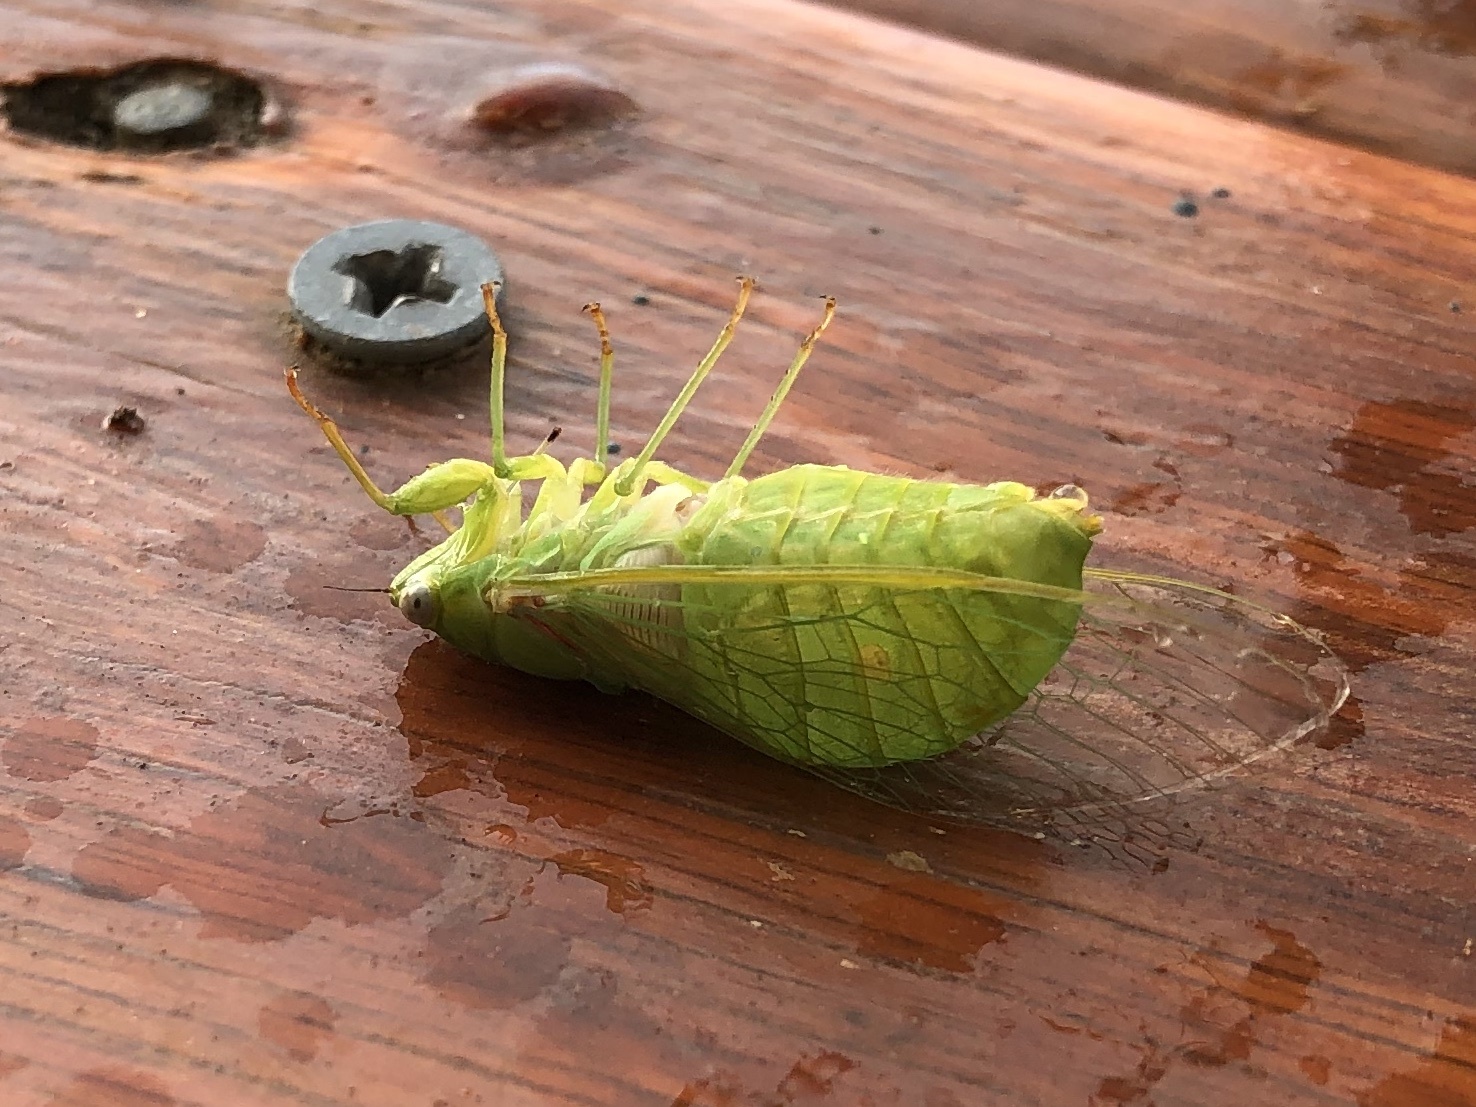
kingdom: Animalia
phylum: Arthropoda
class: Insecta
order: Hemiptera
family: Cicadidae
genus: Chlorocysta
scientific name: Chlorocysta vitripennis
